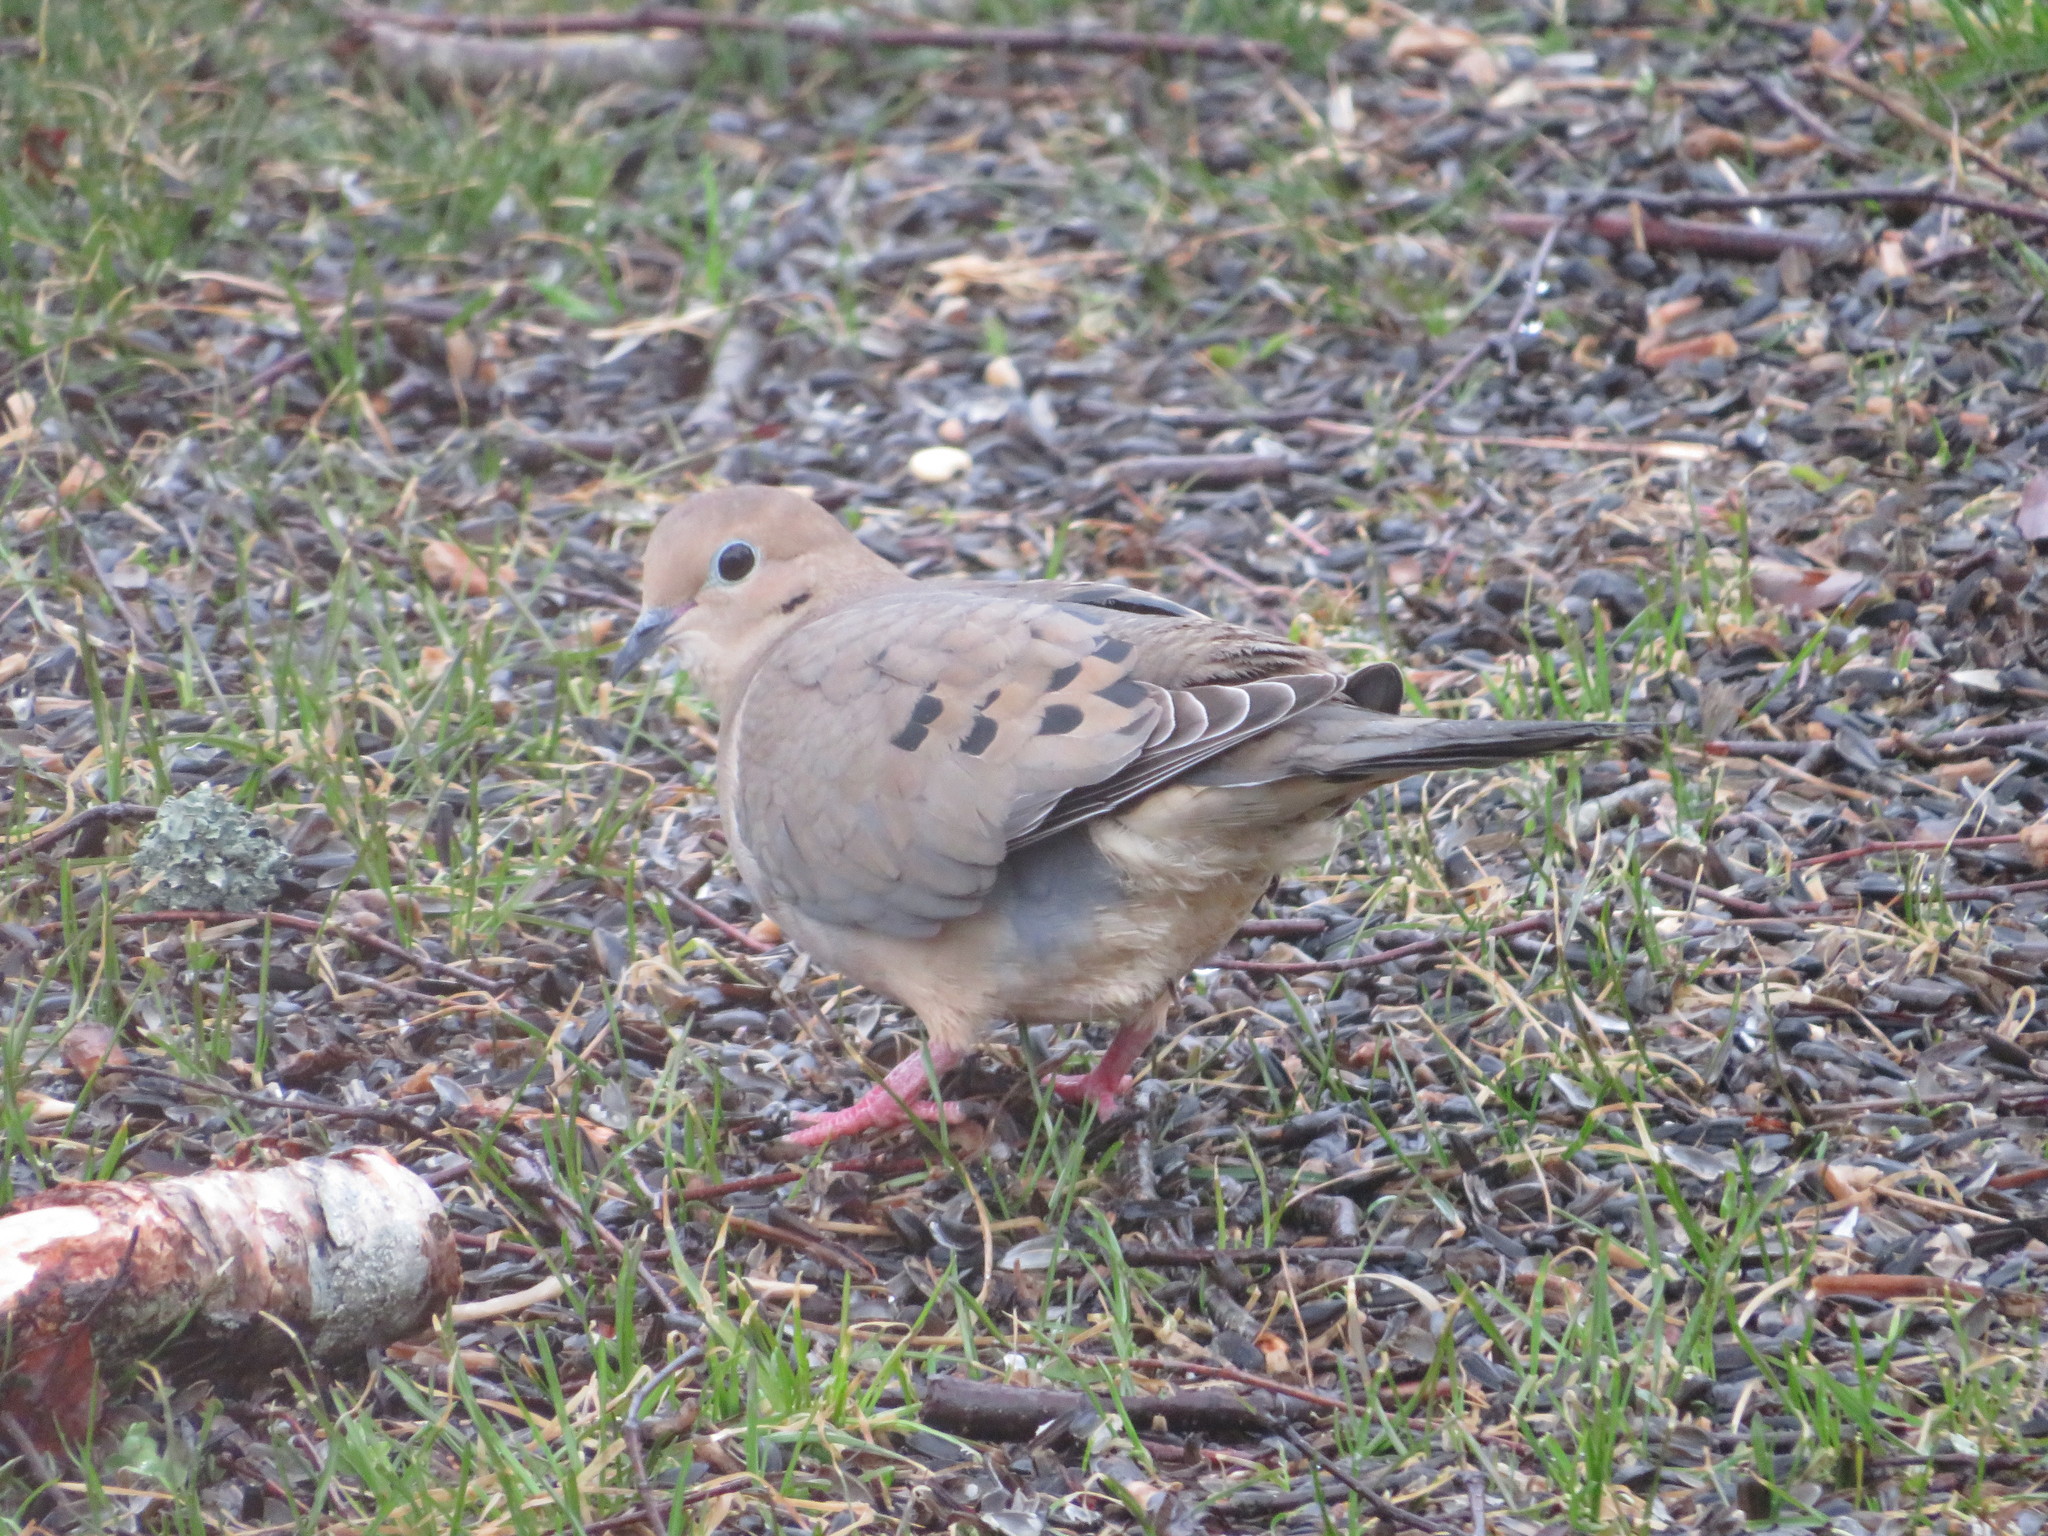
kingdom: Animalia
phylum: Chordata
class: Aves
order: Columbiformes
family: Columbidae
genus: Zenaida
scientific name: Zenaida macroura
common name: Mourning dove
